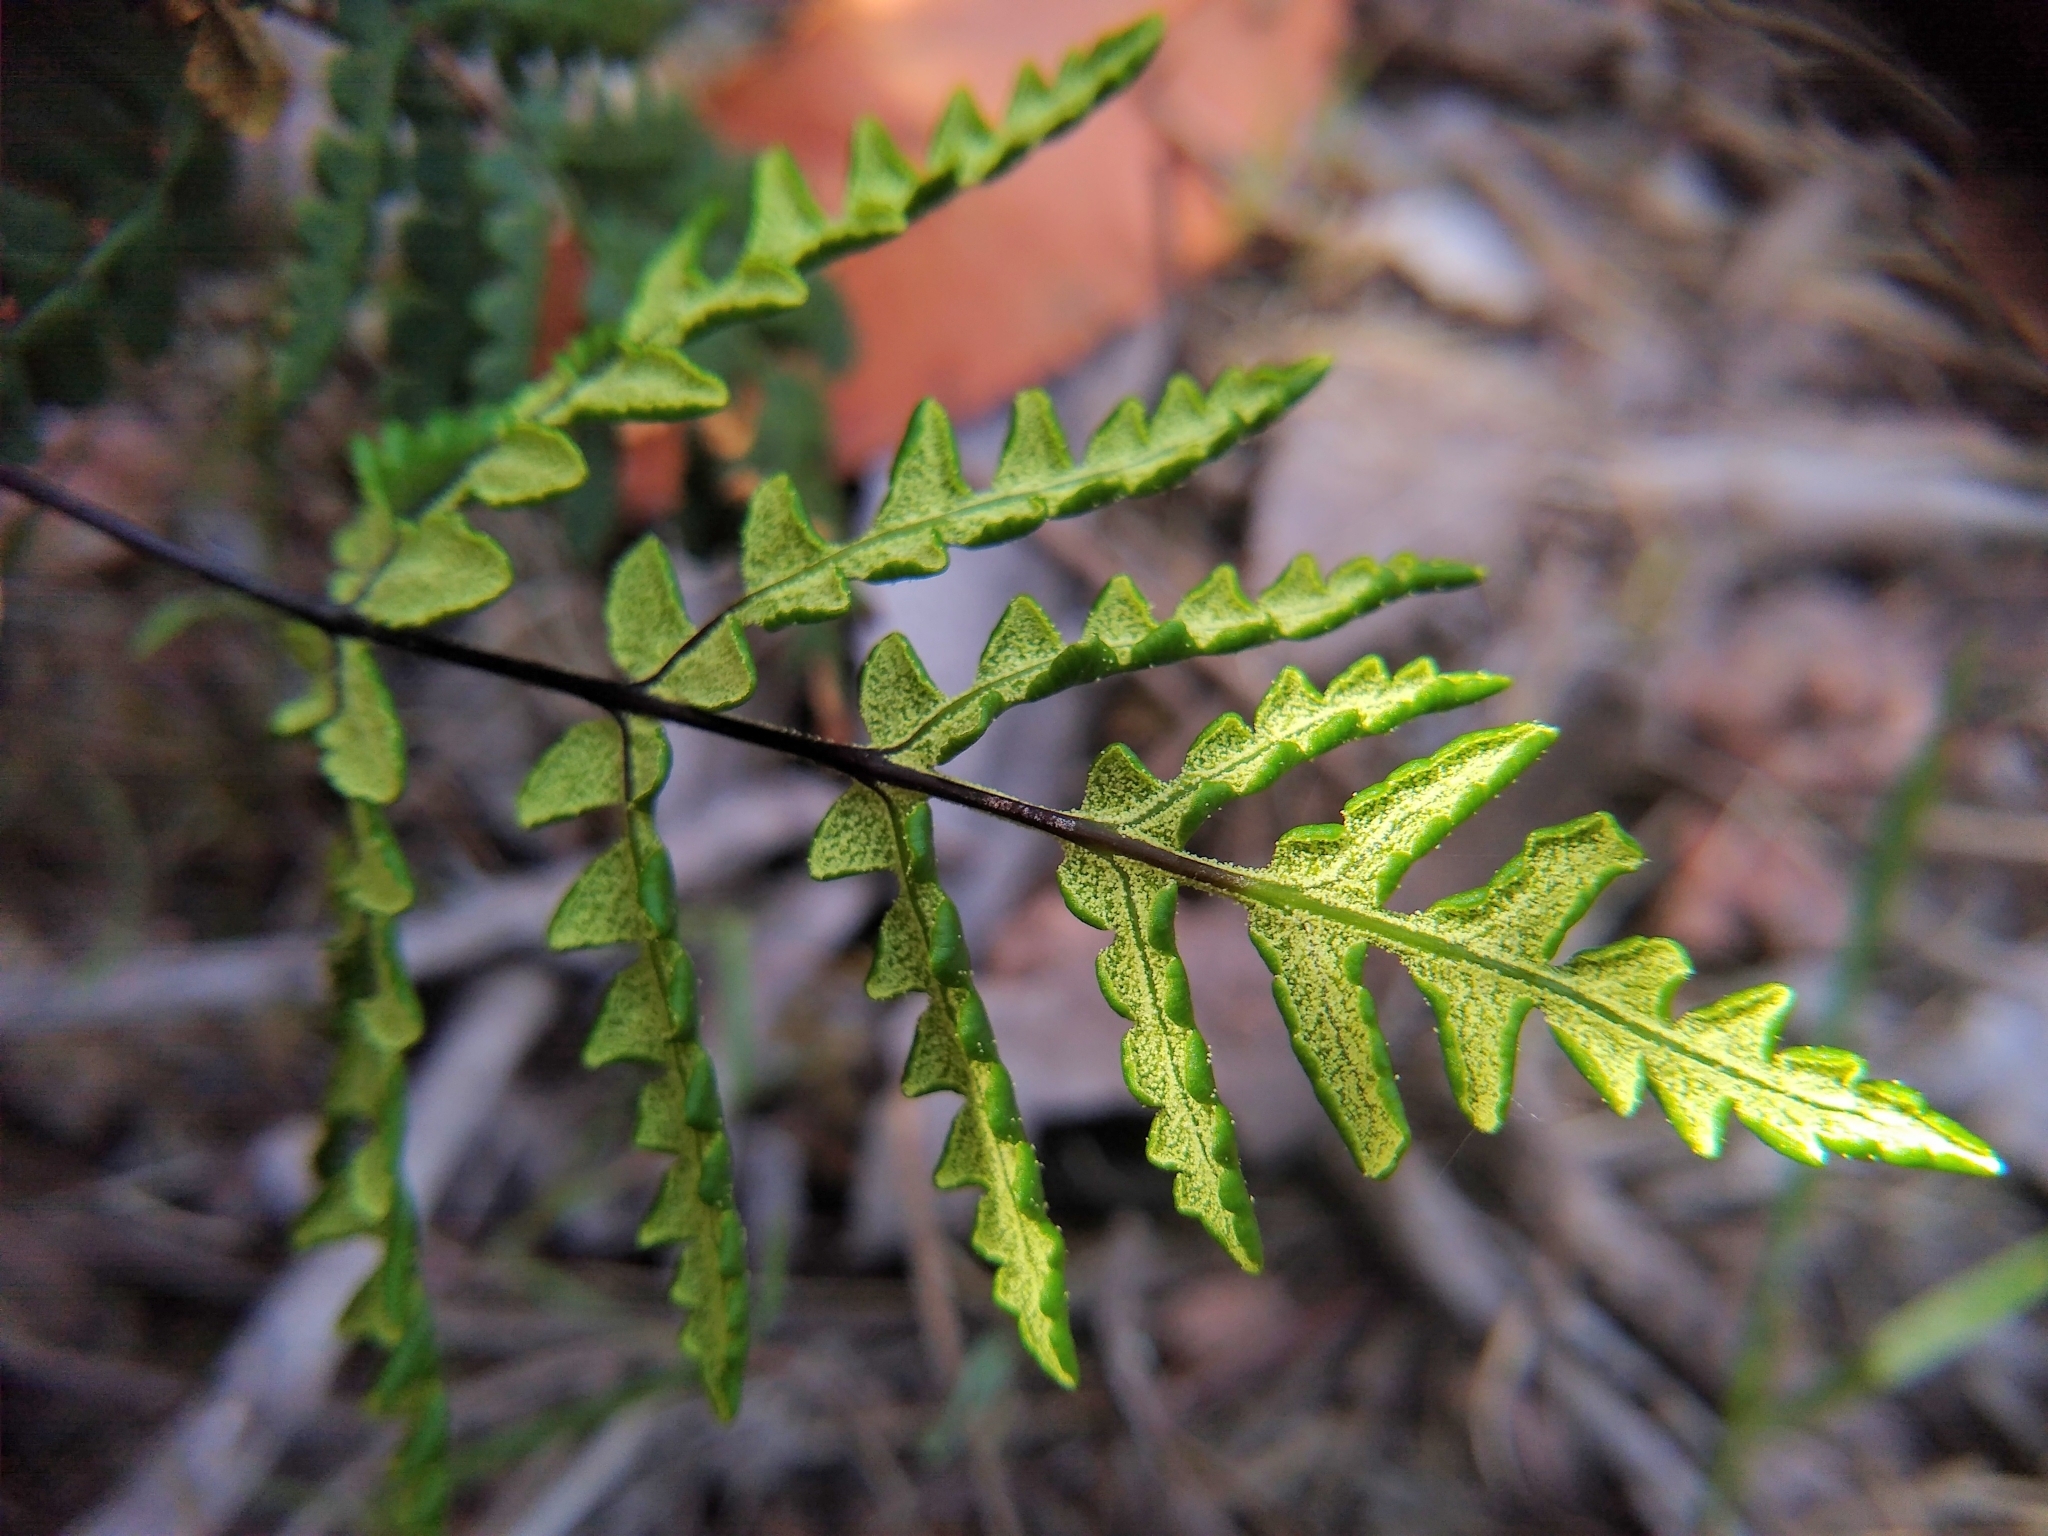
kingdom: Plantae
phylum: Tracheophyta
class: Polypodiopsida
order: Polypodiales
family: Pteridaceae
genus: Pentagramma
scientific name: Pentagramma triangularis
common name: Gold fern
